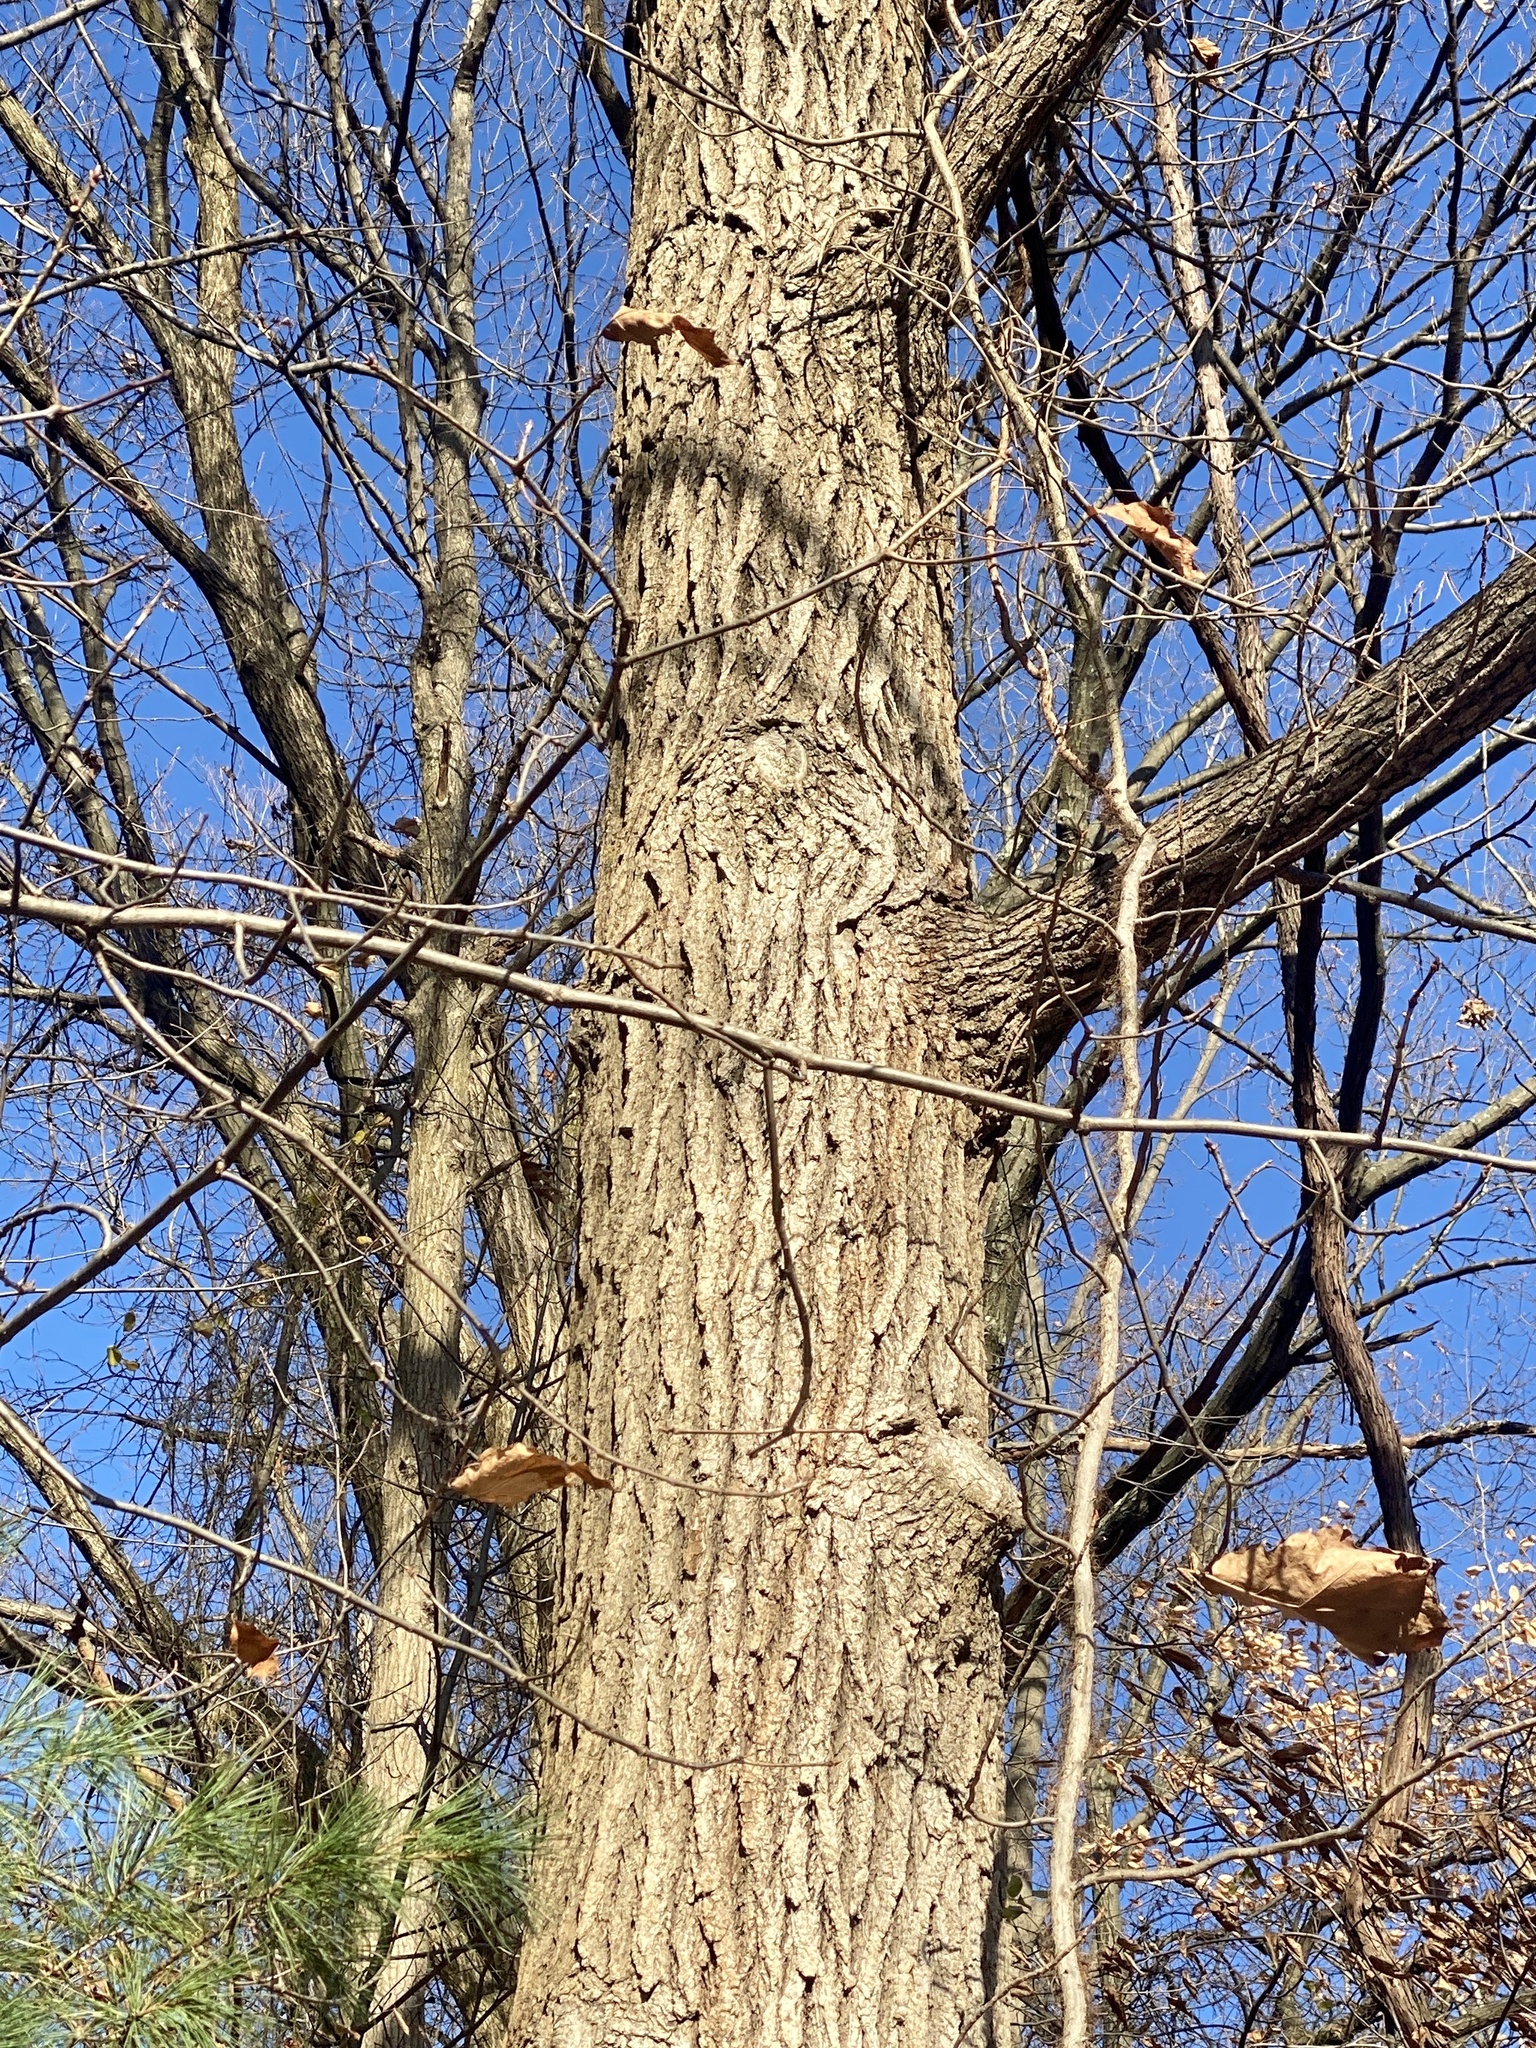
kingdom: Plantae
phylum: Tracheophyta
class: Magnoliopsida
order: Fagales
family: Fagaceae
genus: Quercus
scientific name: Quercus rubra
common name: Red oak
